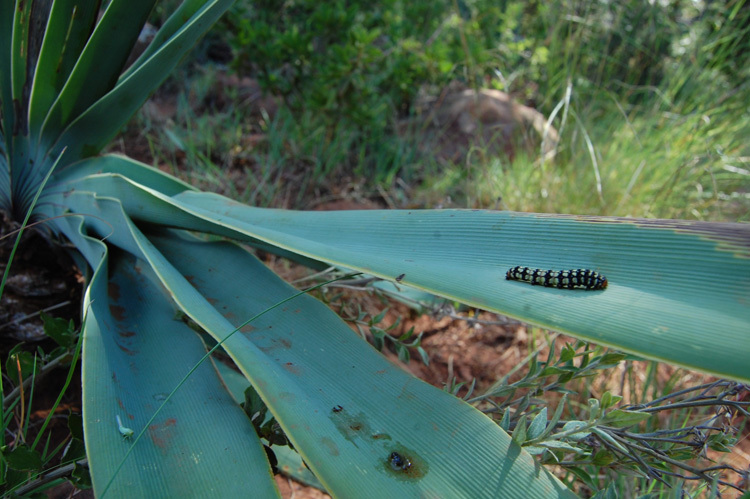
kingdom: Animalia
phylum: Arthropoda
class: Insecta
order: Lepidoptera
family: Noctuidae
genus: Brithys
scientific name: Brithys crini
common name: Kew arches
